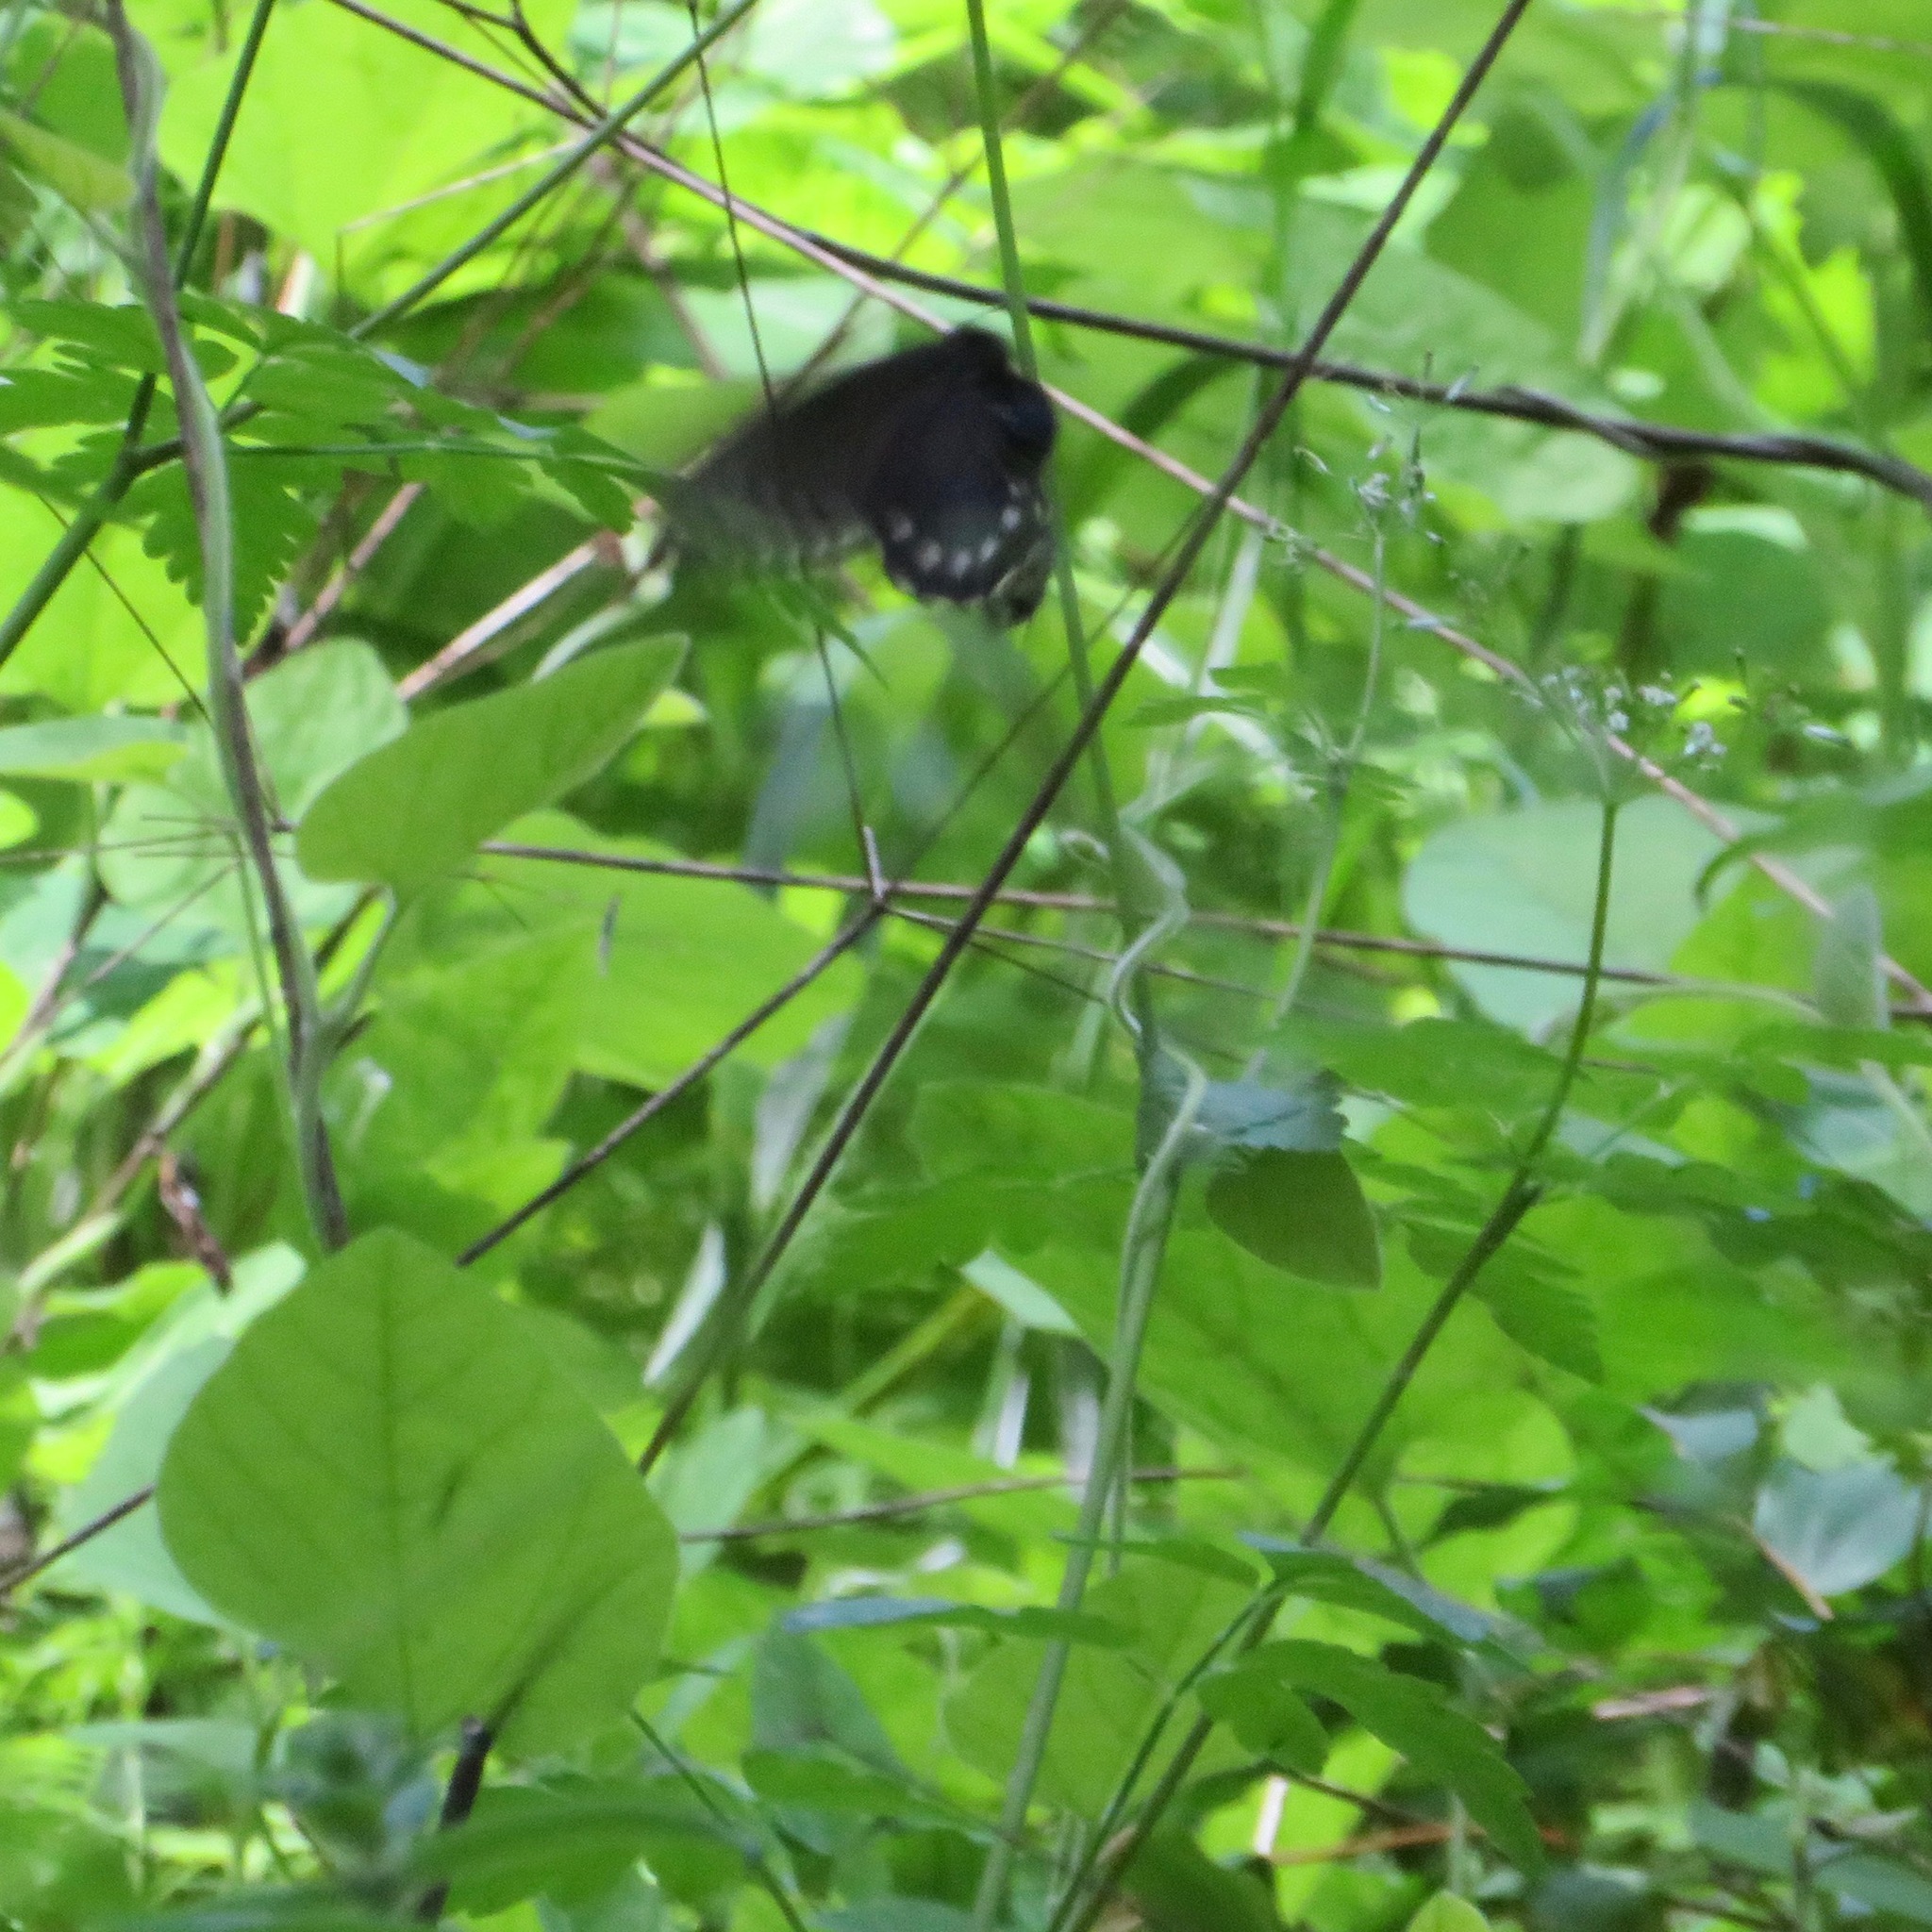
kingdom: Animalia
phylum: Arthropoda
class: Insecta
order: Lepidoptera
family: Papilionidae
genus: Battus
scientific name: Battus philenor
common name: Pipevine swallowtail
